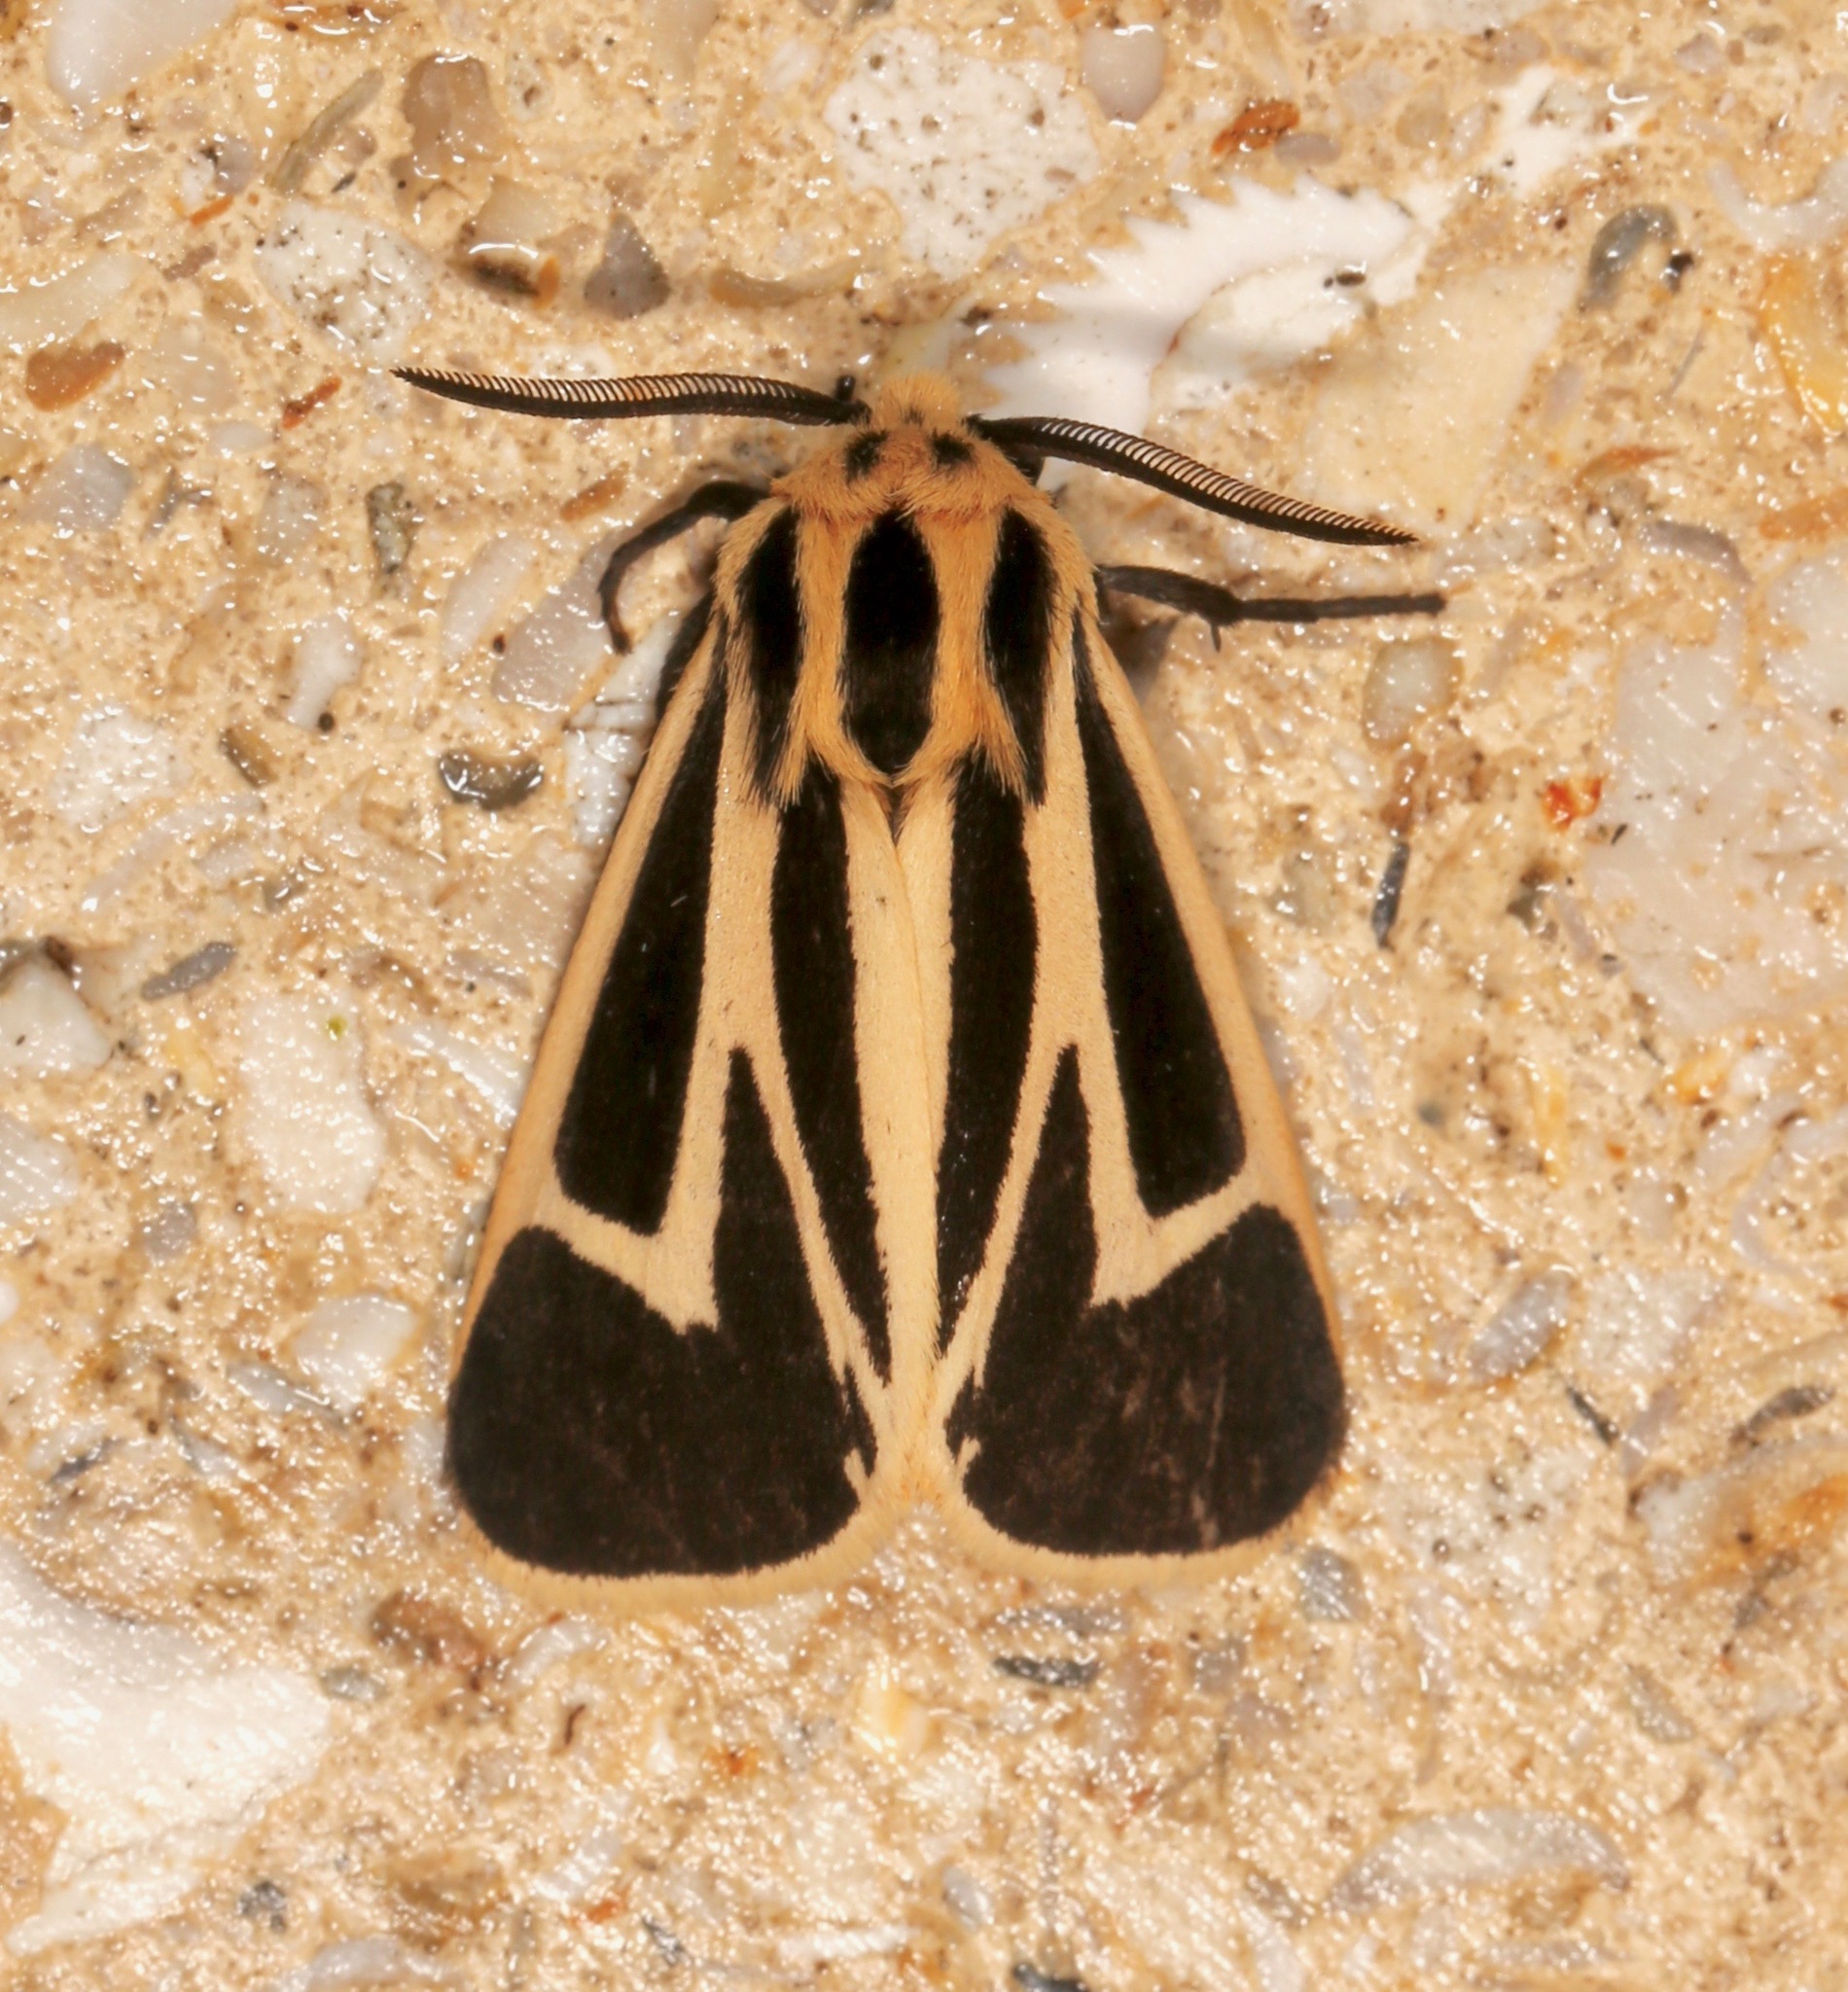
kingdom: Animalia
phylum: Arthropoda
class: Insecta
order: Lepidoptera
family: Erebidae
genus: Apantesis
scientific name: Apantesis vittata
